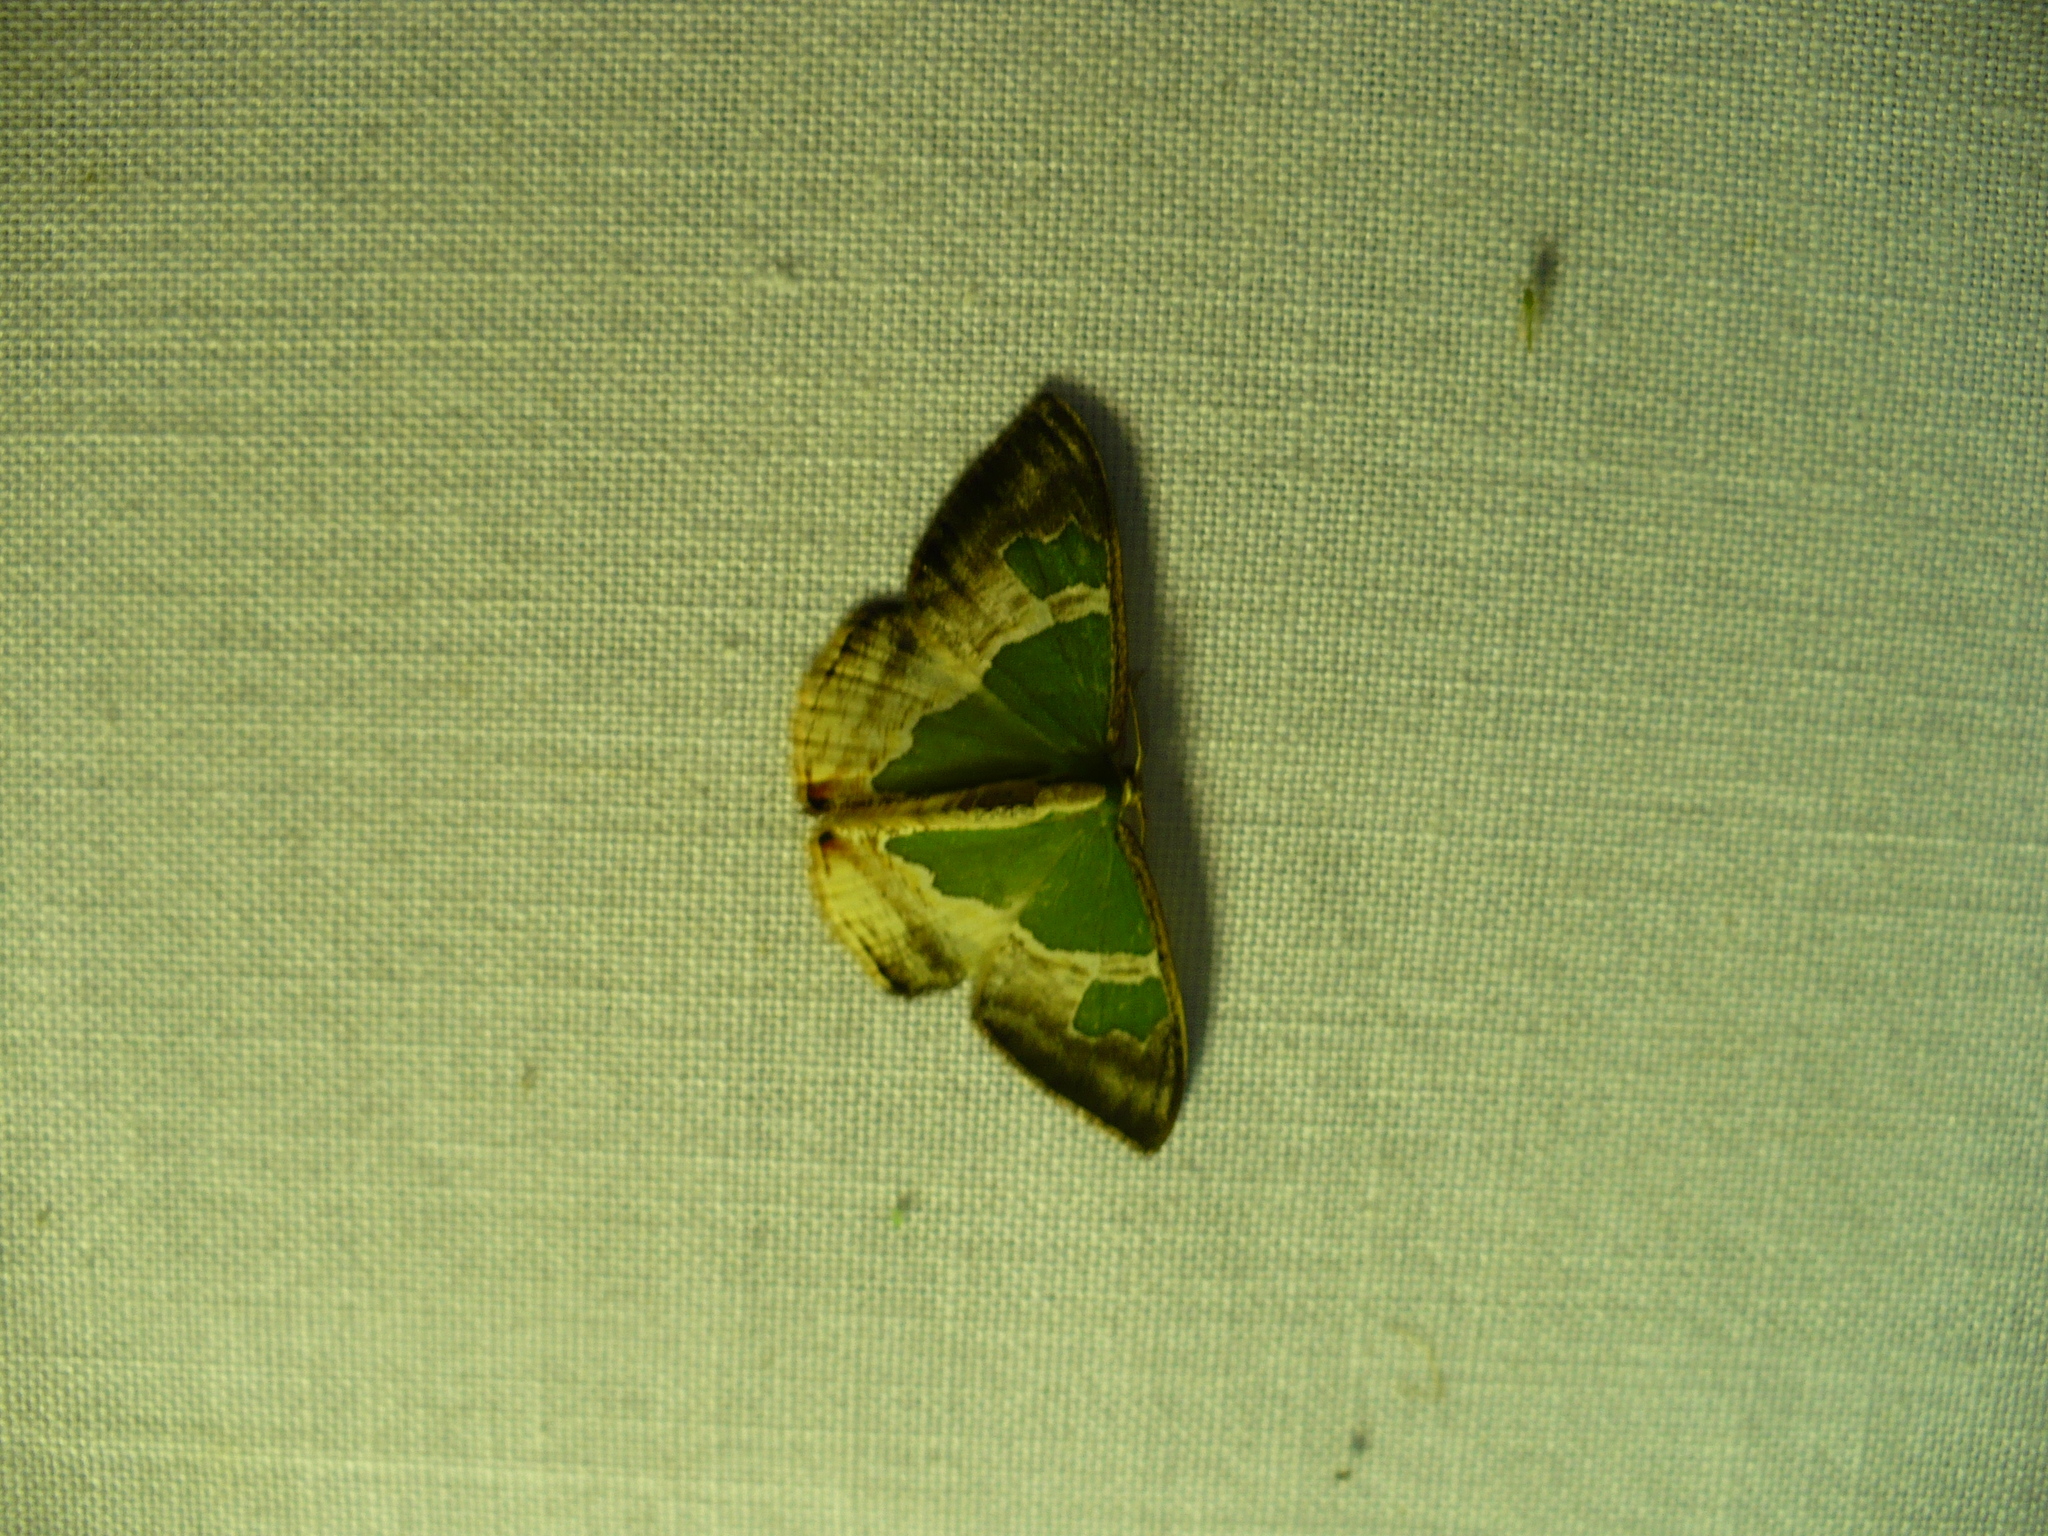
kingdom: Animalia
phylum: Arthropoda
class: Insecta
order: Lepidoptera
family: Geometridae
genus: Oospila
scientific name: Oospila venezuelata
